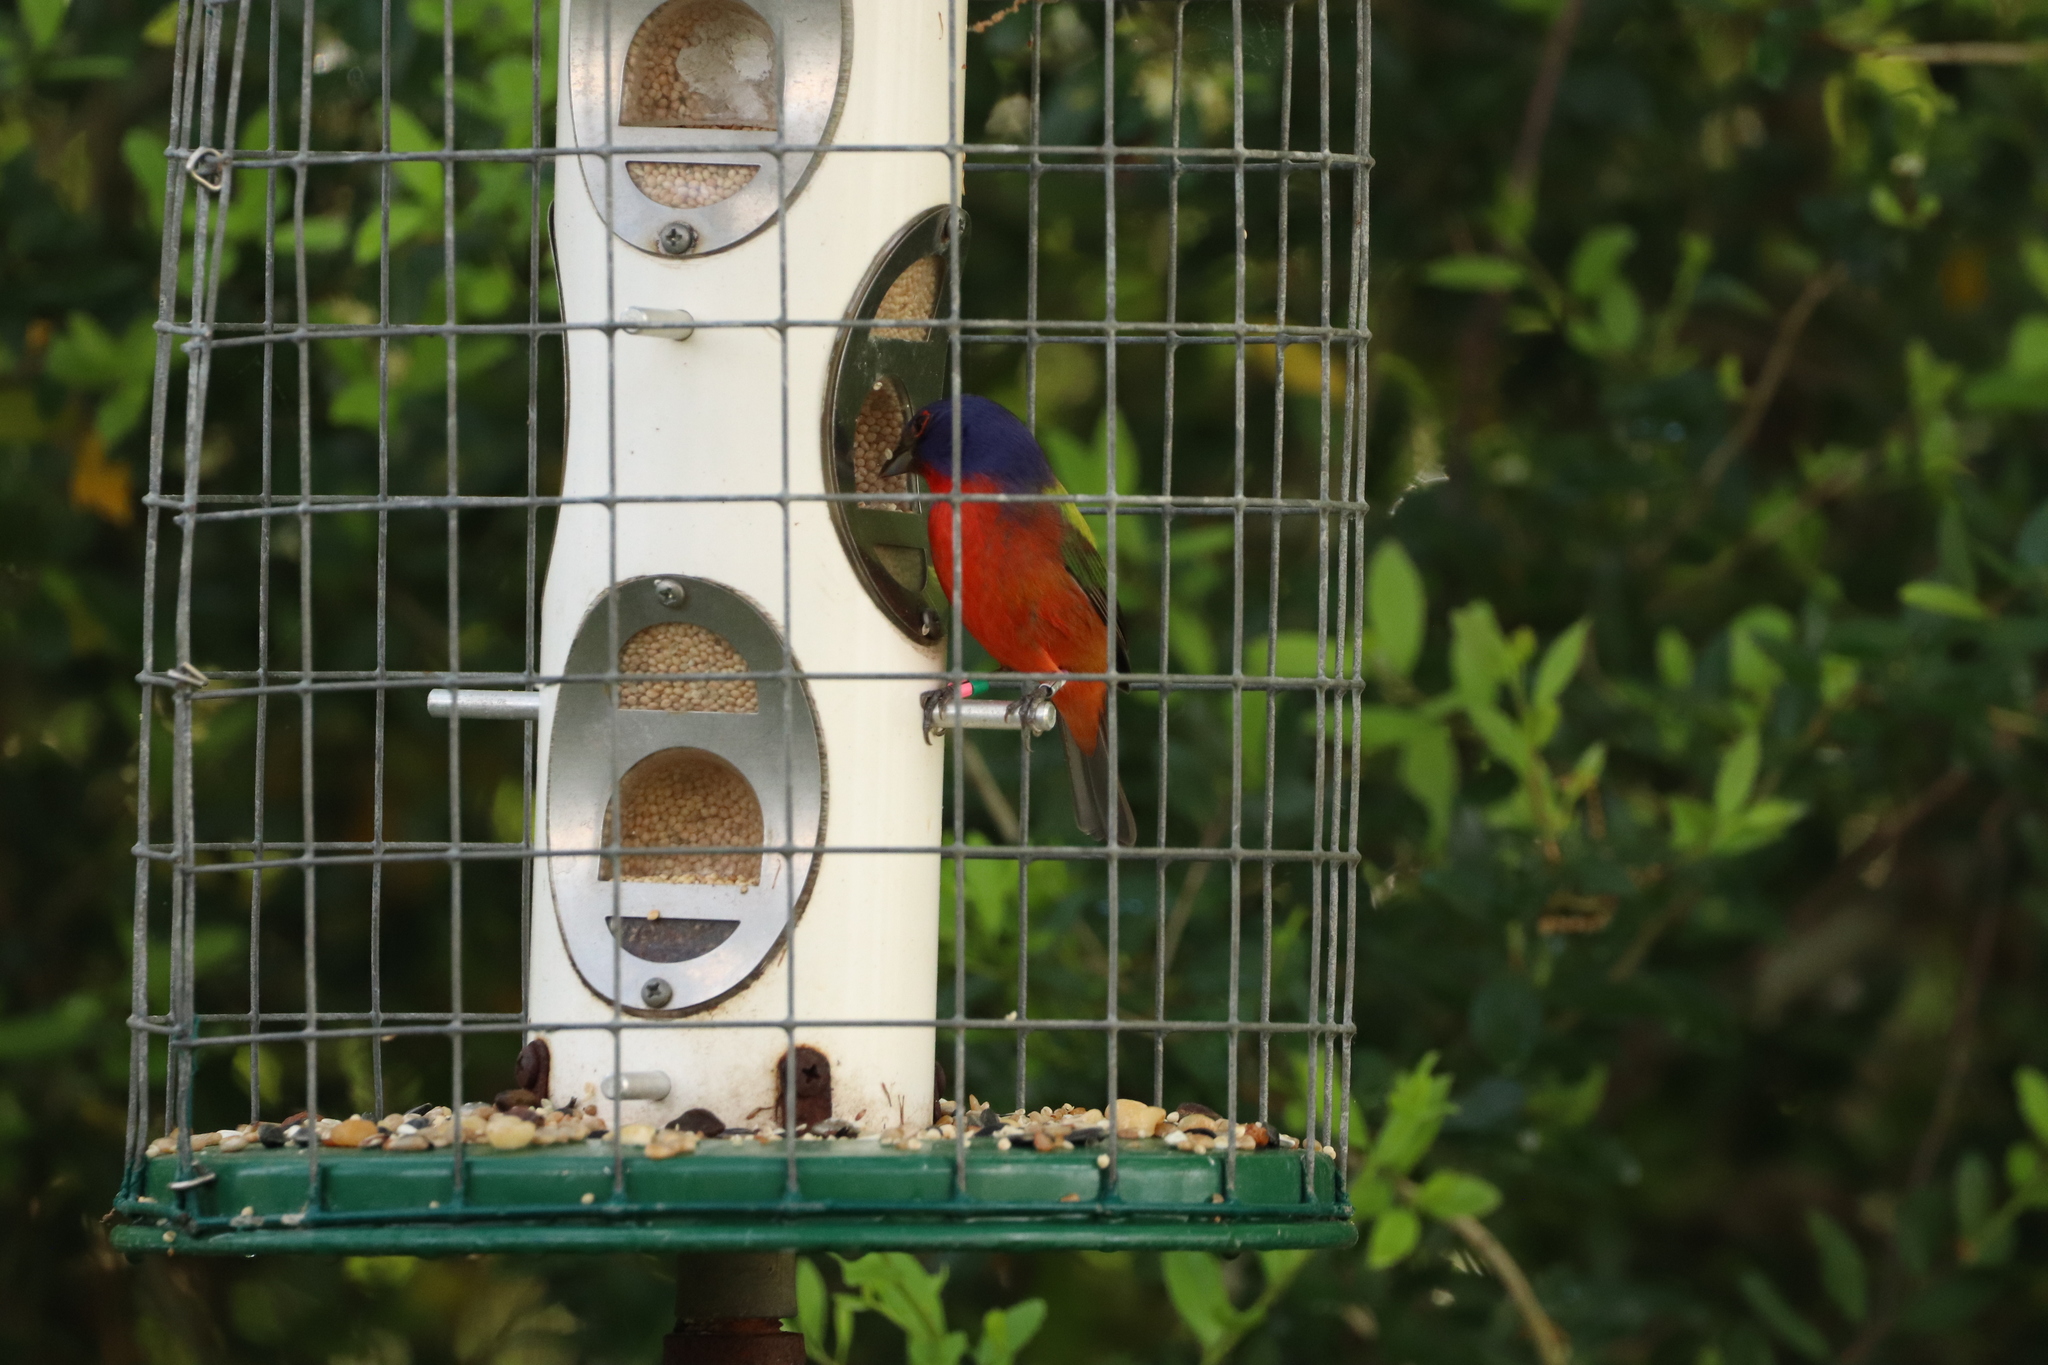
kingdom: Animalia
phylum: Chordata
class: Aves
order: Passeriformes
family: Cardinalidae
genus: Passerina
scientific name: Passerina ciris
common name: Painted bunting
